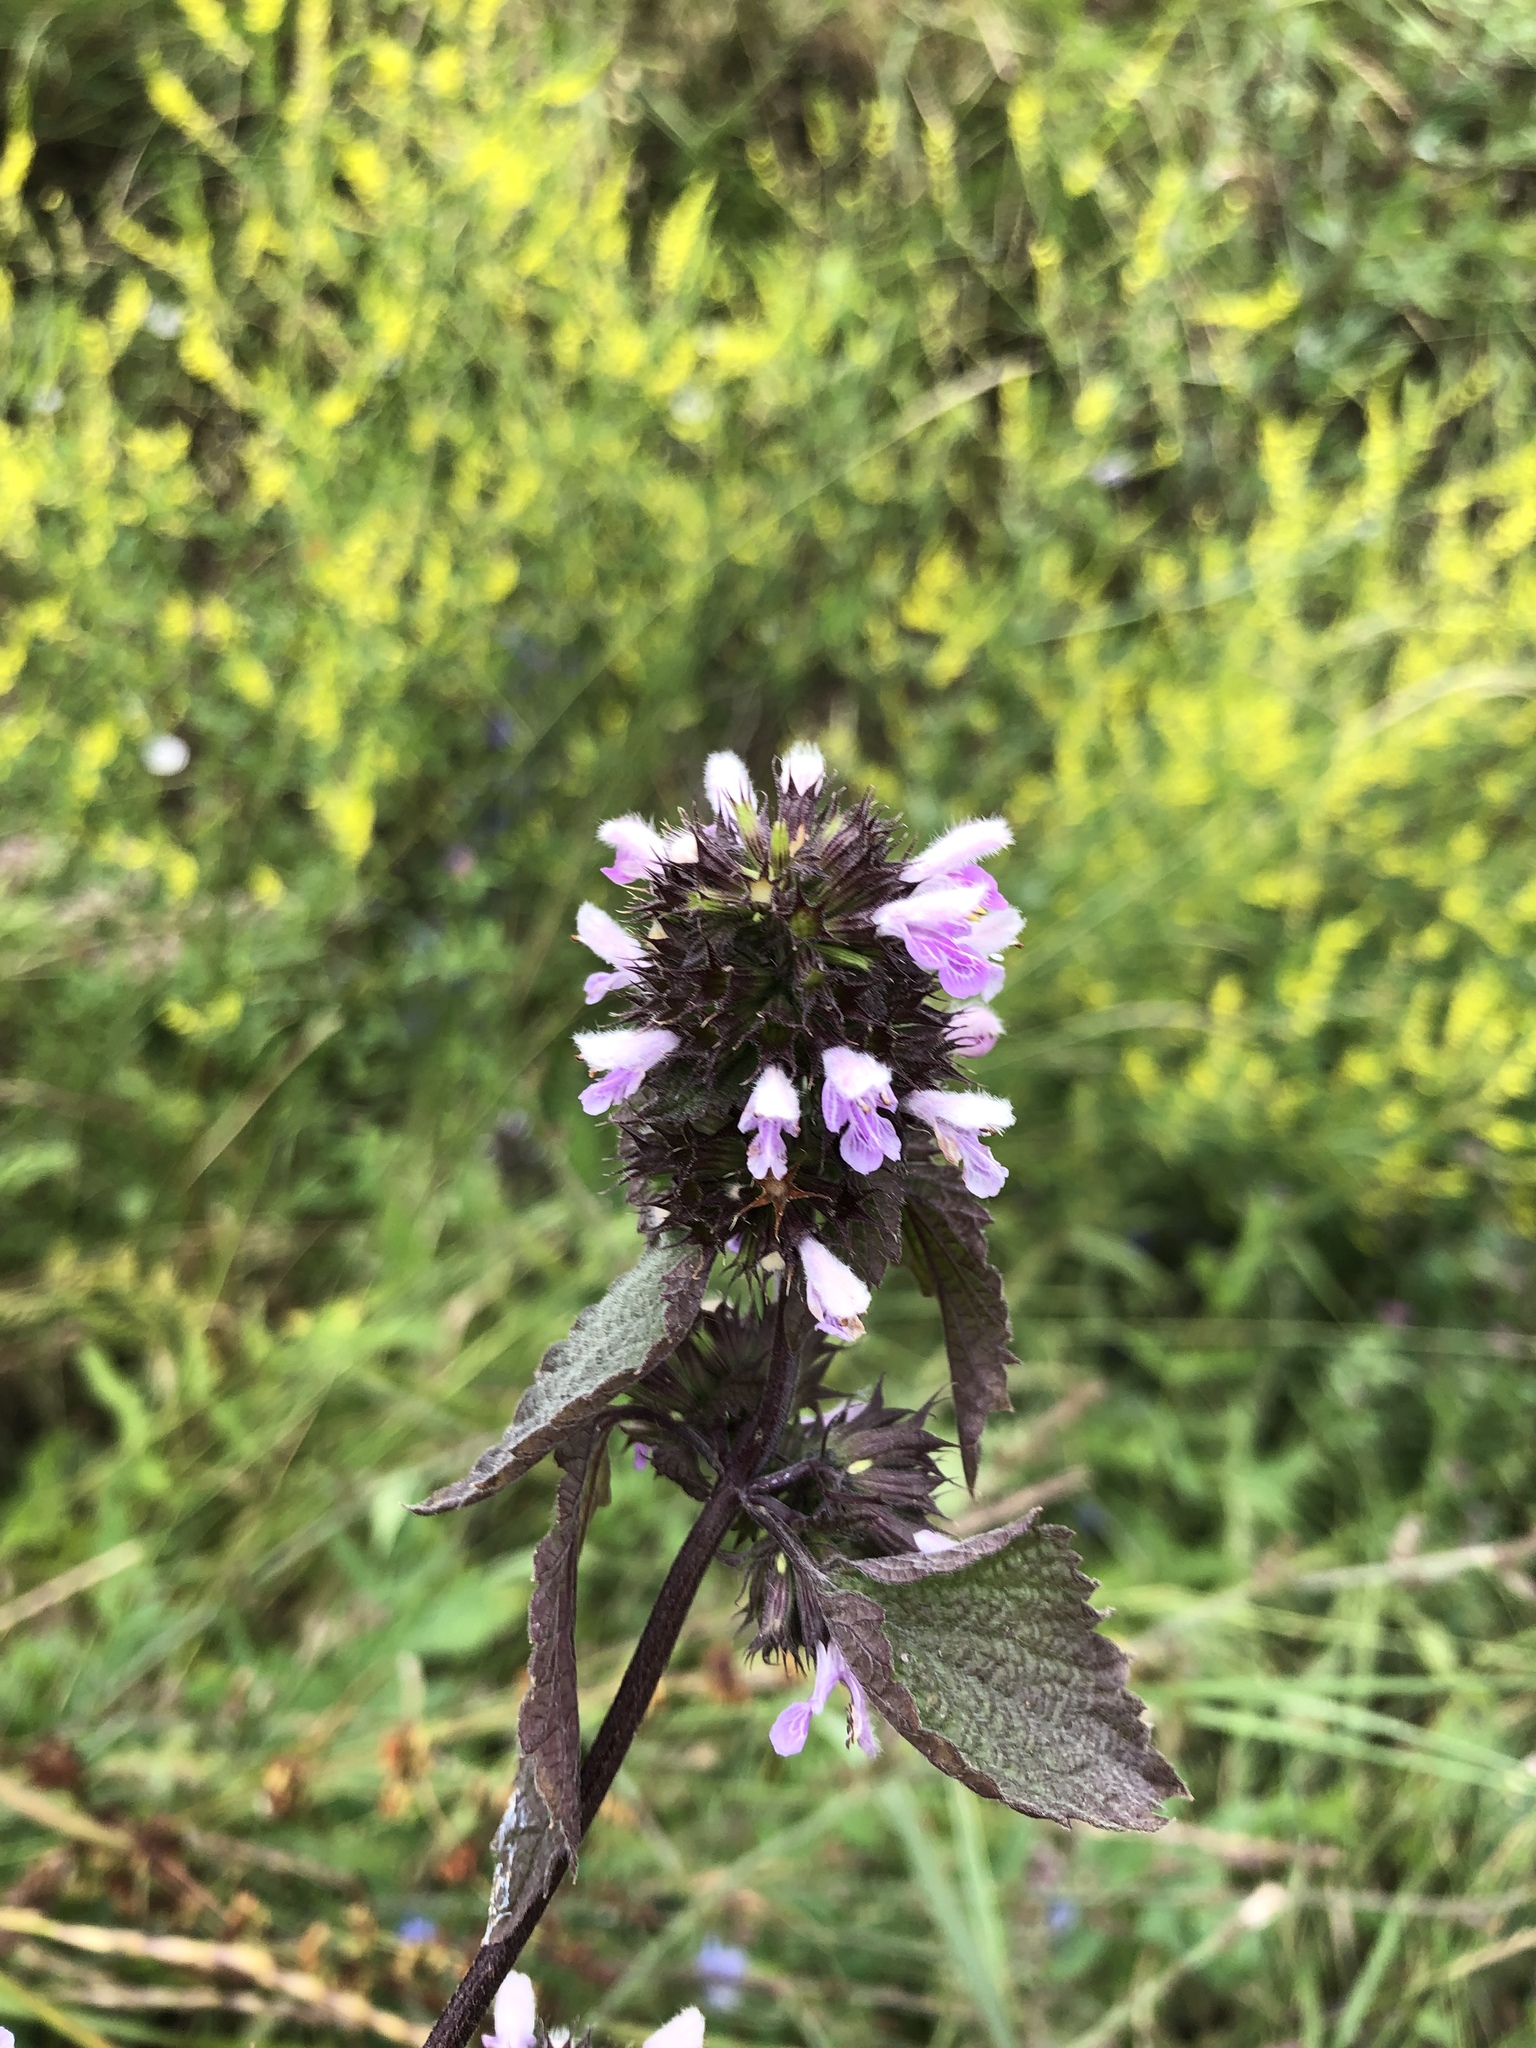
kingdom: Plantae
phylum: Tracheophyta
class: Magnoliopsida
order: Lamiales
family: Lamiaceae
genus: Ballota
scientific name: Ballota nigra
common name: Black horehound
